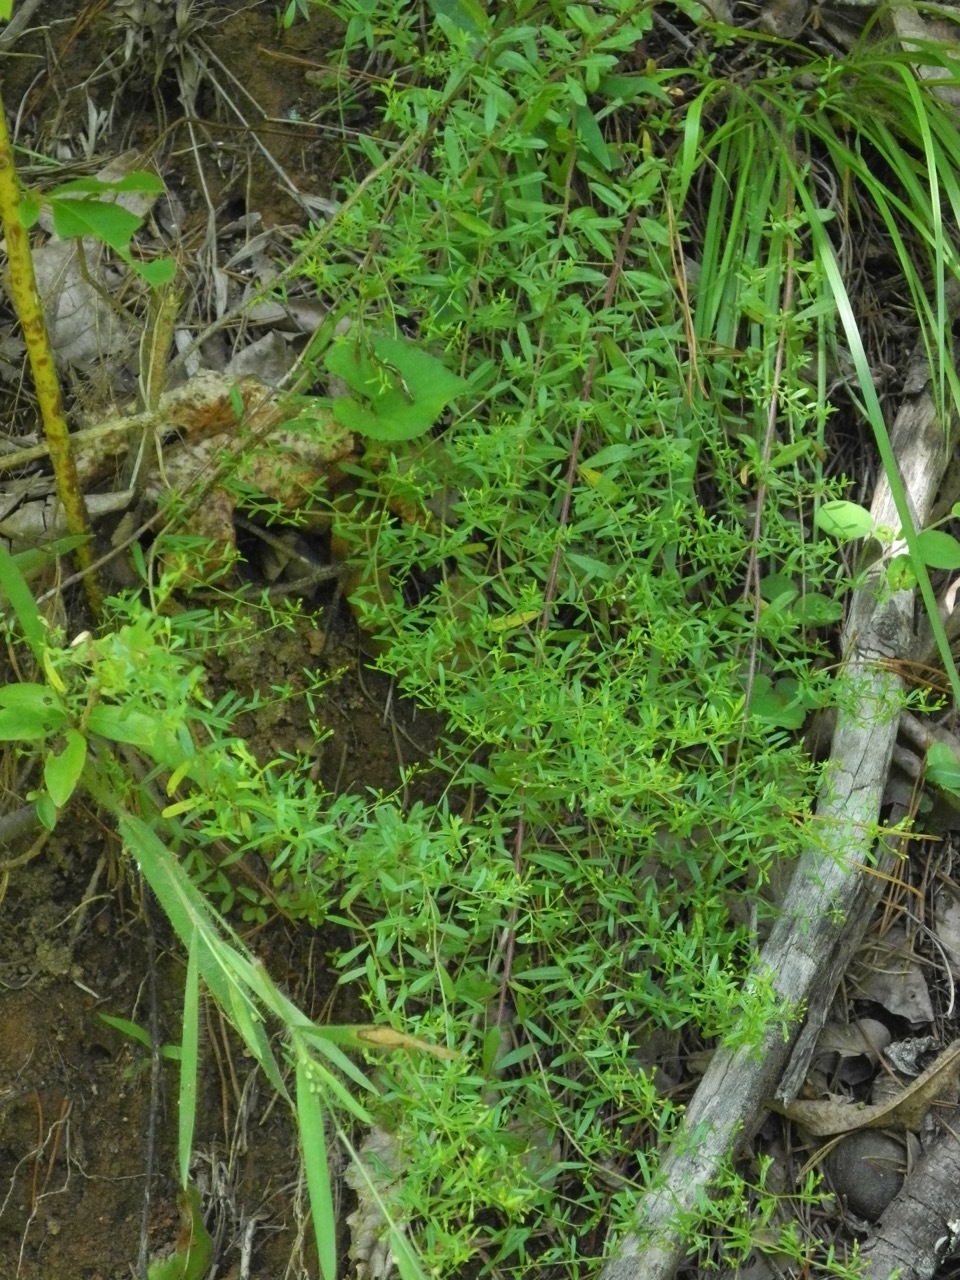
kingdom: Plantae
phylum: Tracheophyta
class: Magnoliopsida
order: Malvales
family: Cistaceae
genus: Lechea
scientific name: Lechea racemulosa
